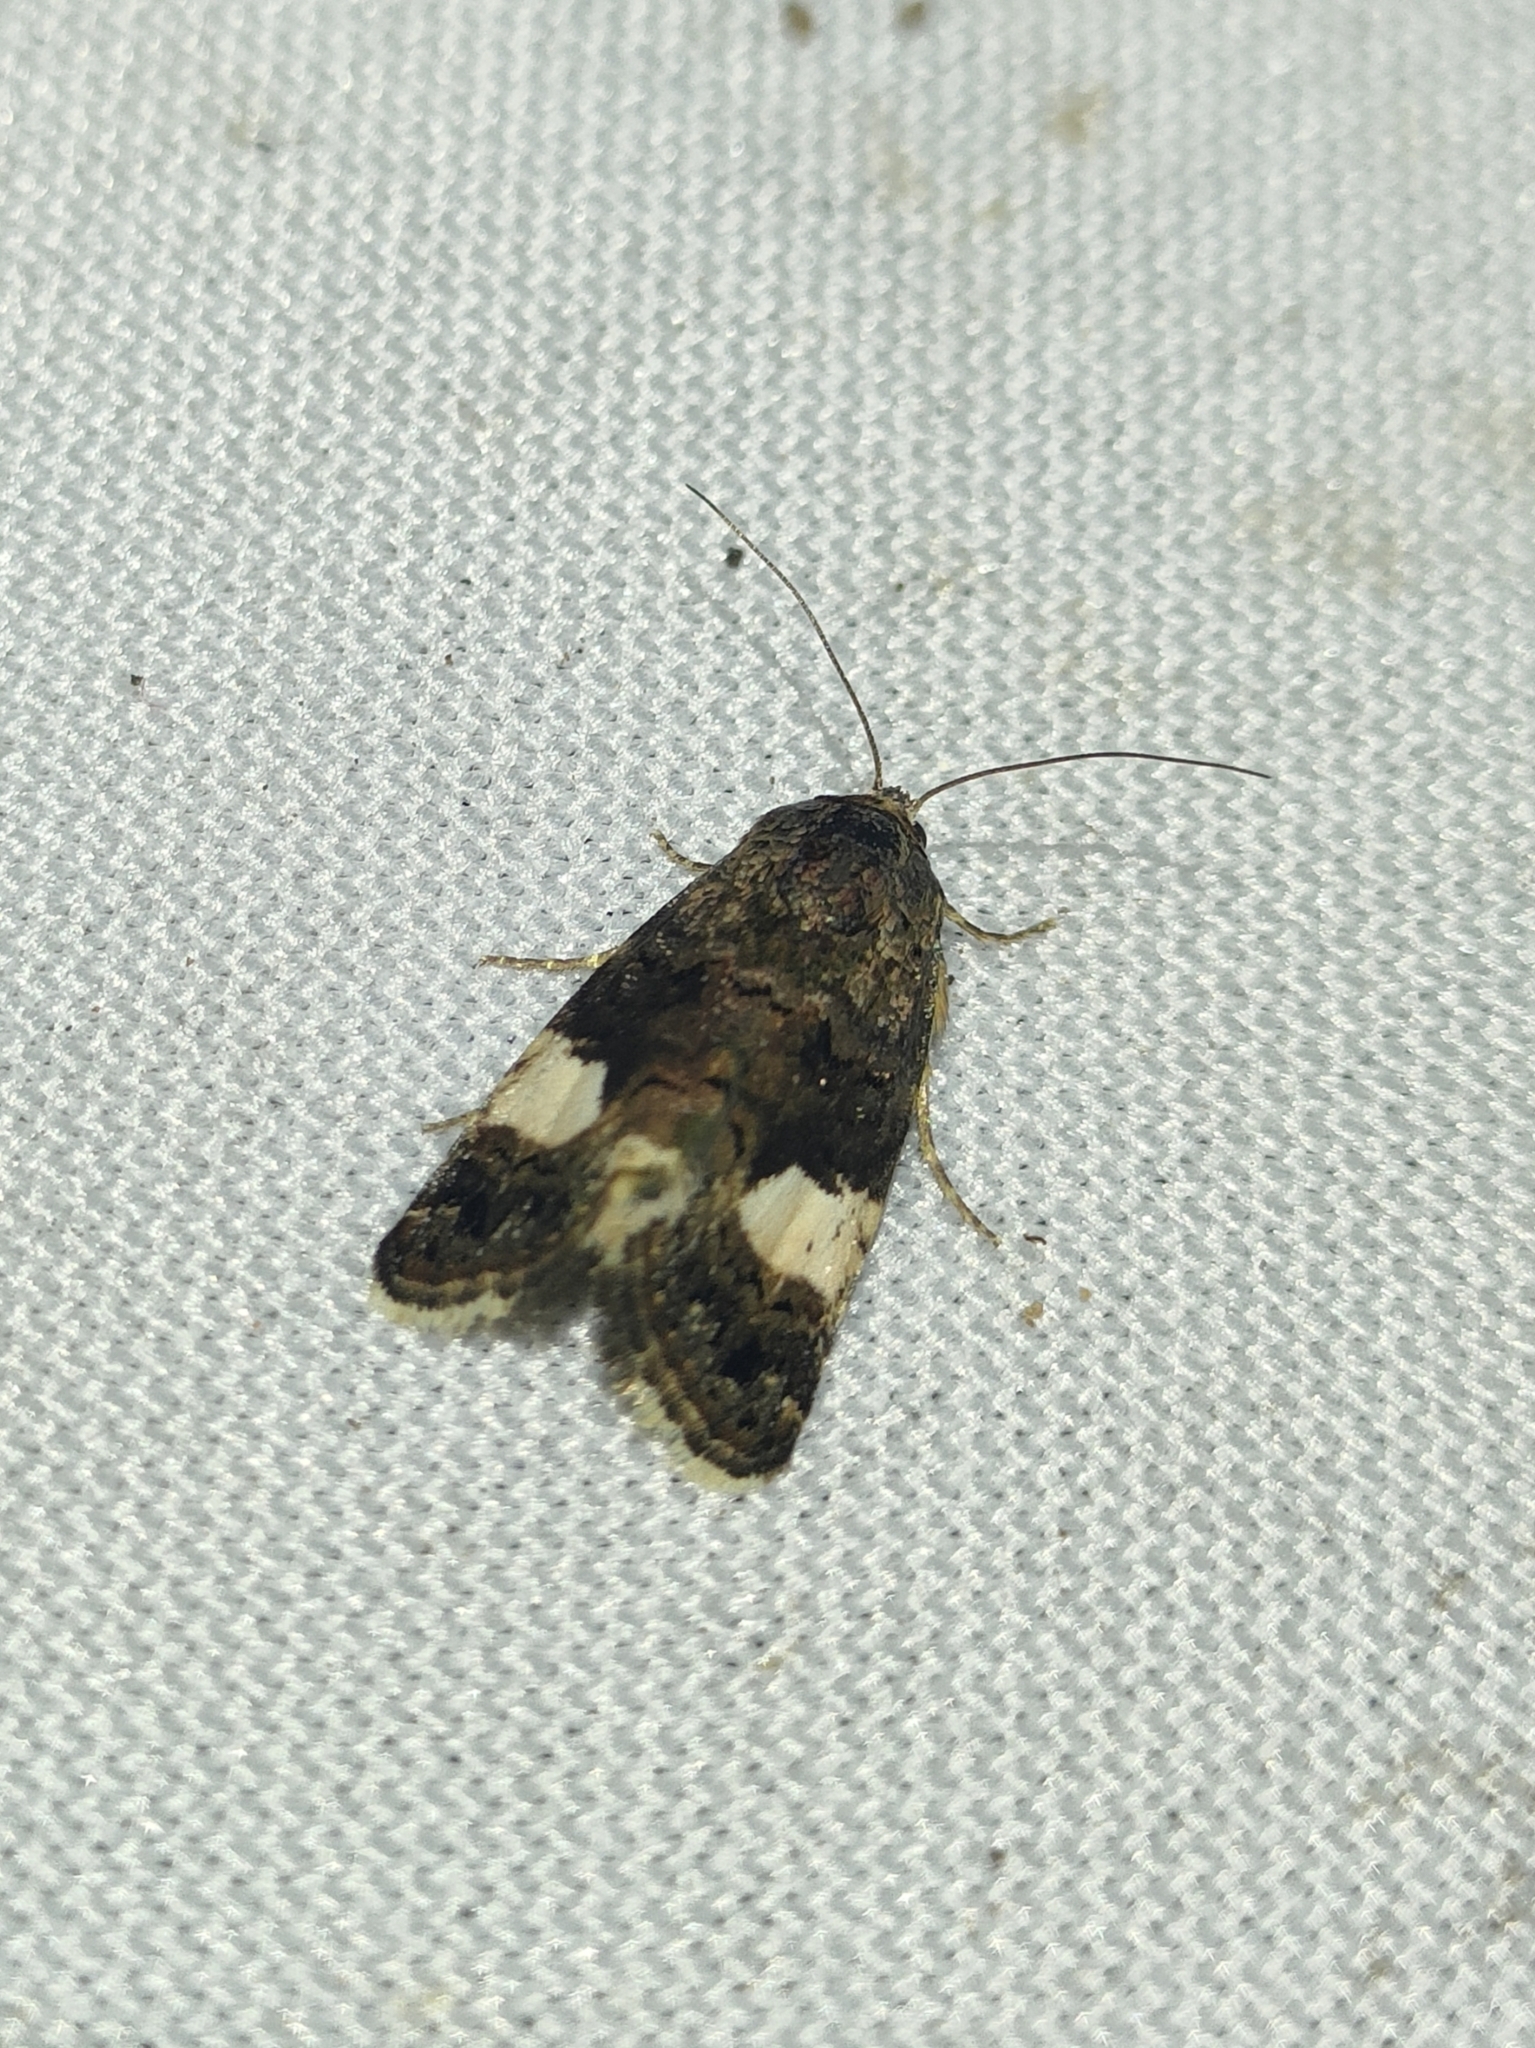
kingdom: Animalia
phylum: Arthropoda
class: Insecta
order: Lepidoptera
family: Erebidae
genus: Tyta
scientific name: Tyta luctuosa
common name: Four-spotted
